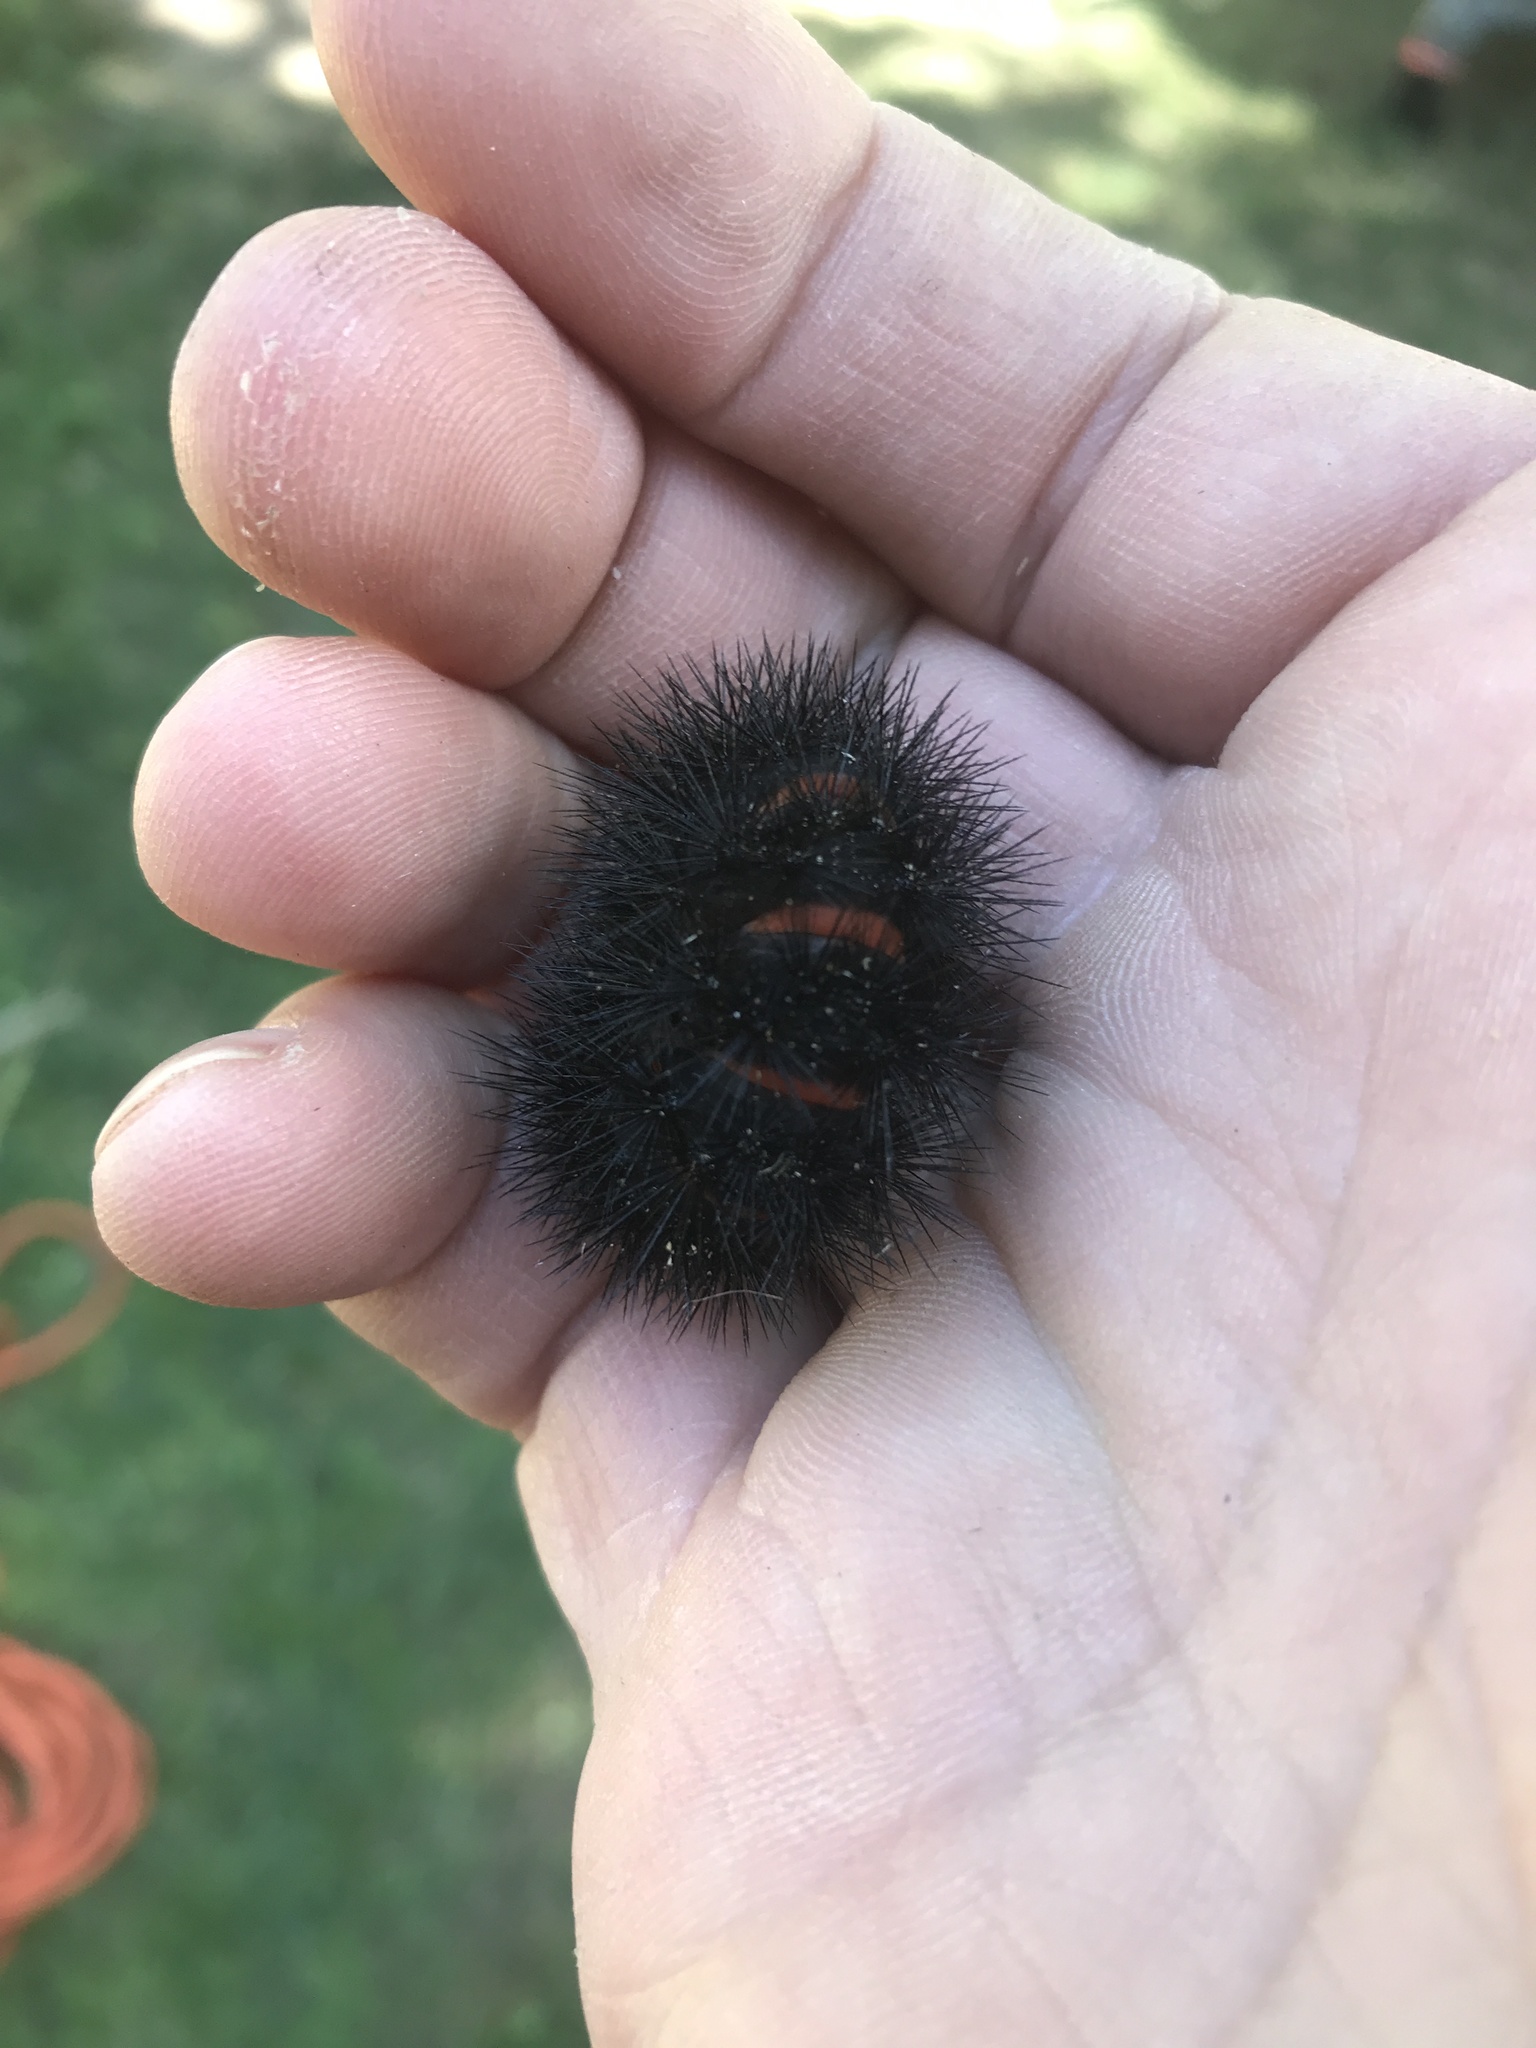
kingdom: Animalia
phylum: Arthropoda
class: Insecta
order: Lepidoptera
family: Erebidae
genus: Hypercompe
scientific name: Hypercompe scribonia
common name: Giant leopard moth
